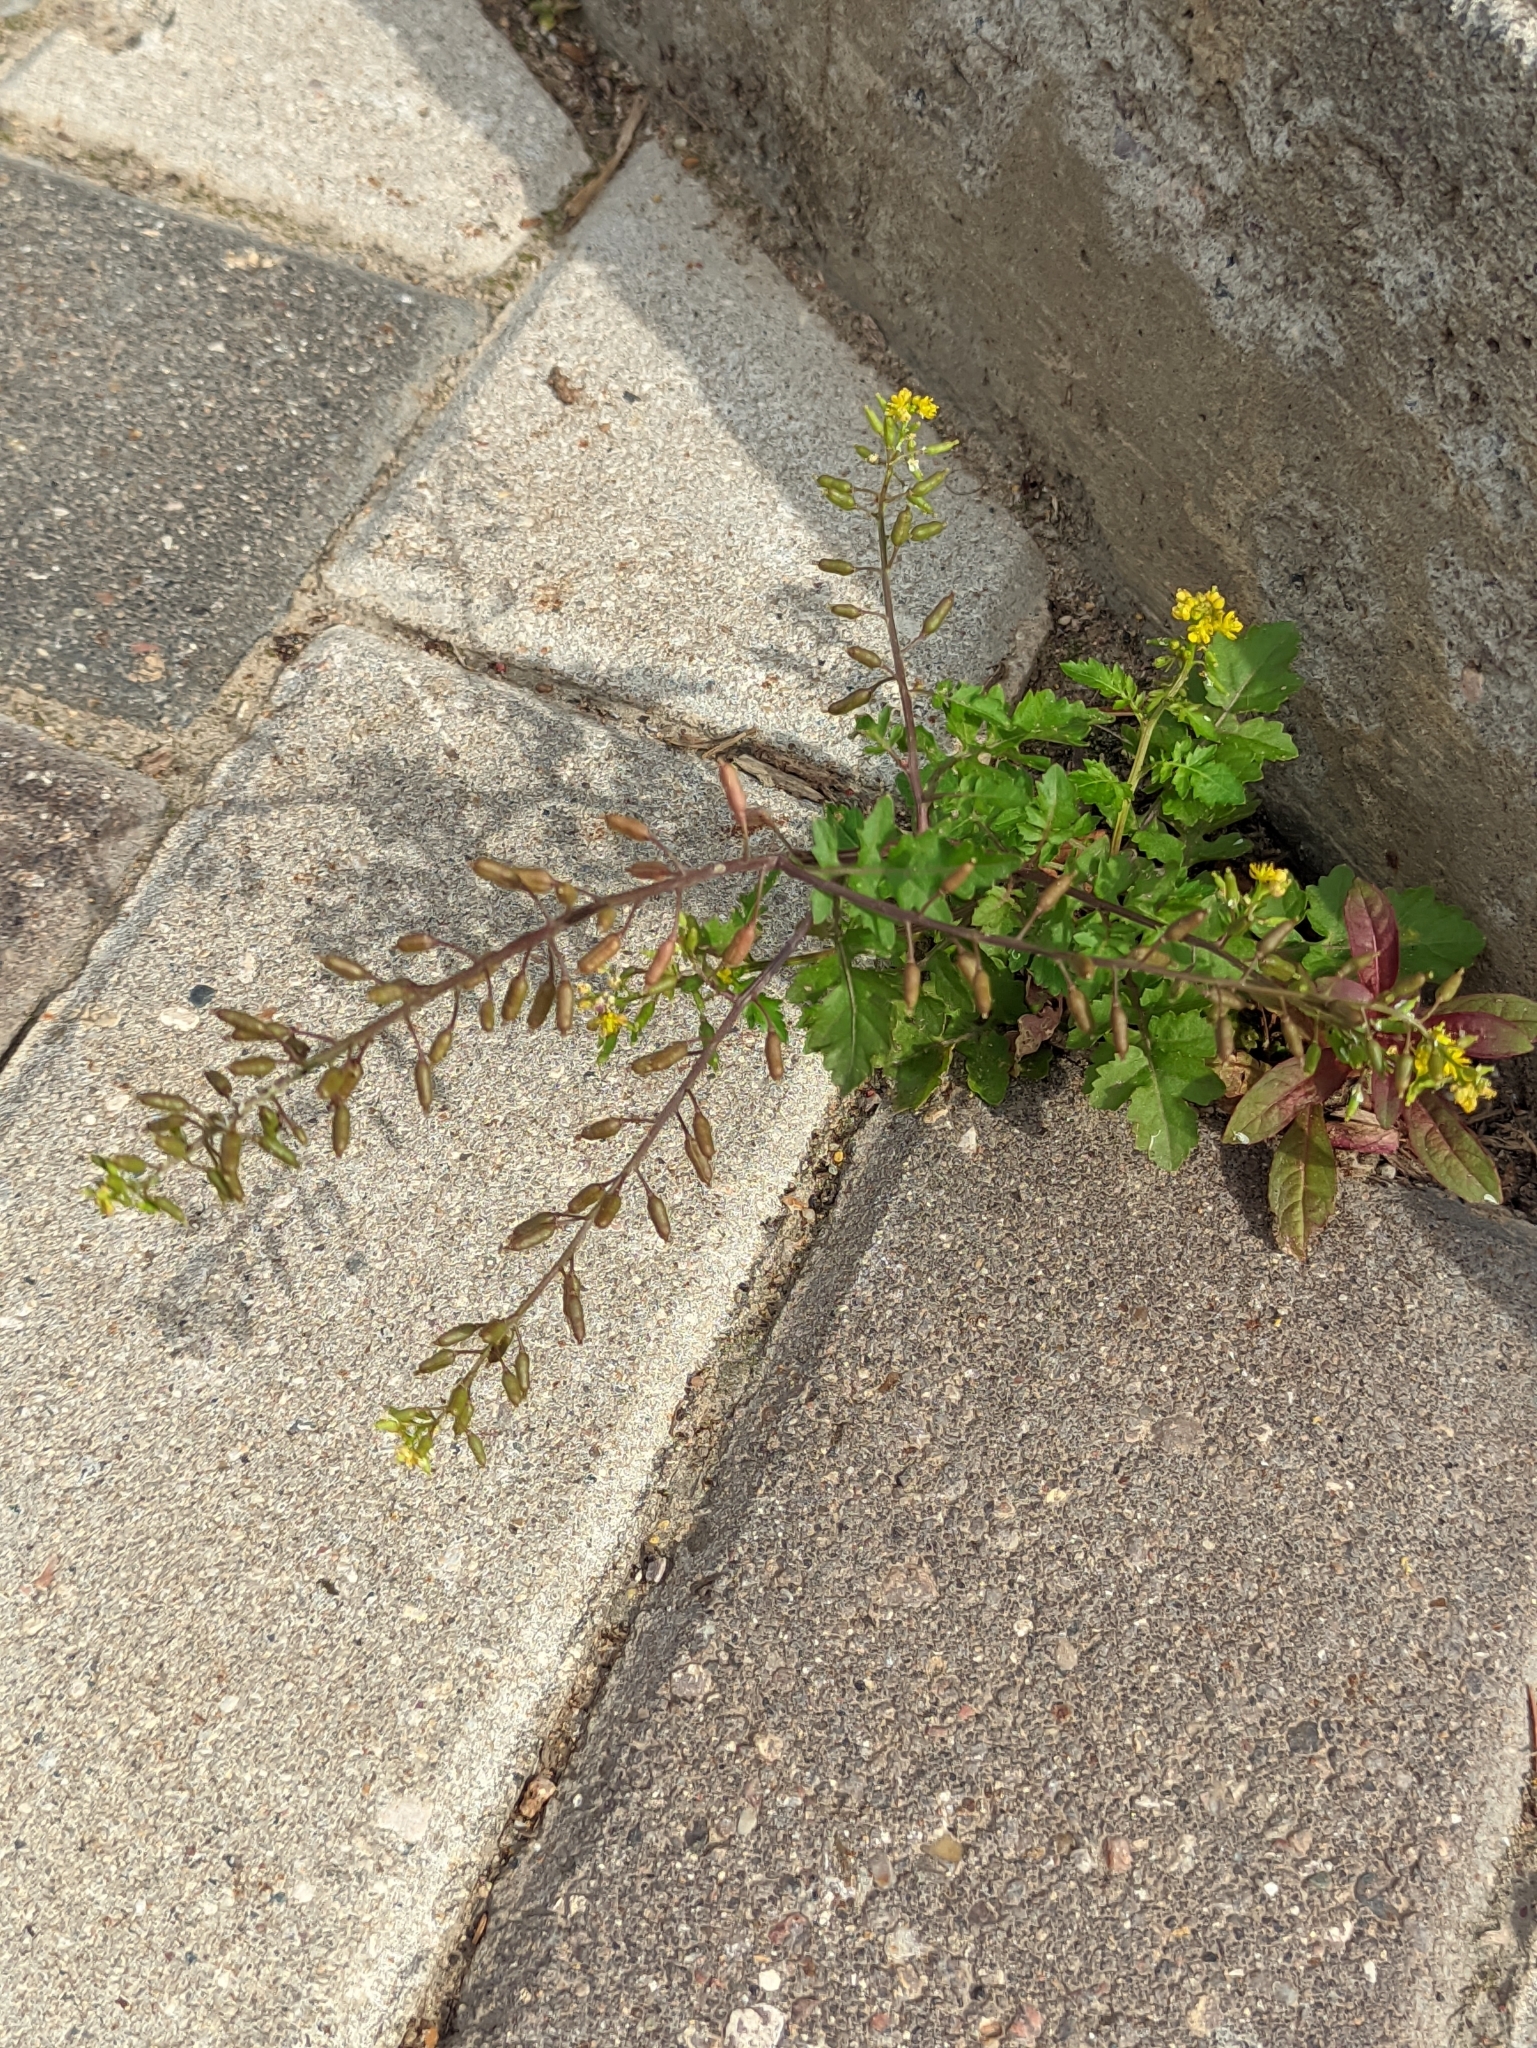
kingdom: Plantae
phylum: Tracheophyta
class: Magnoliopsida
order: Brassicales
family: Brassicaceae
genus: Rorippa
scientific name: Rorippa palustris
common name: Marsh yellow-cress
